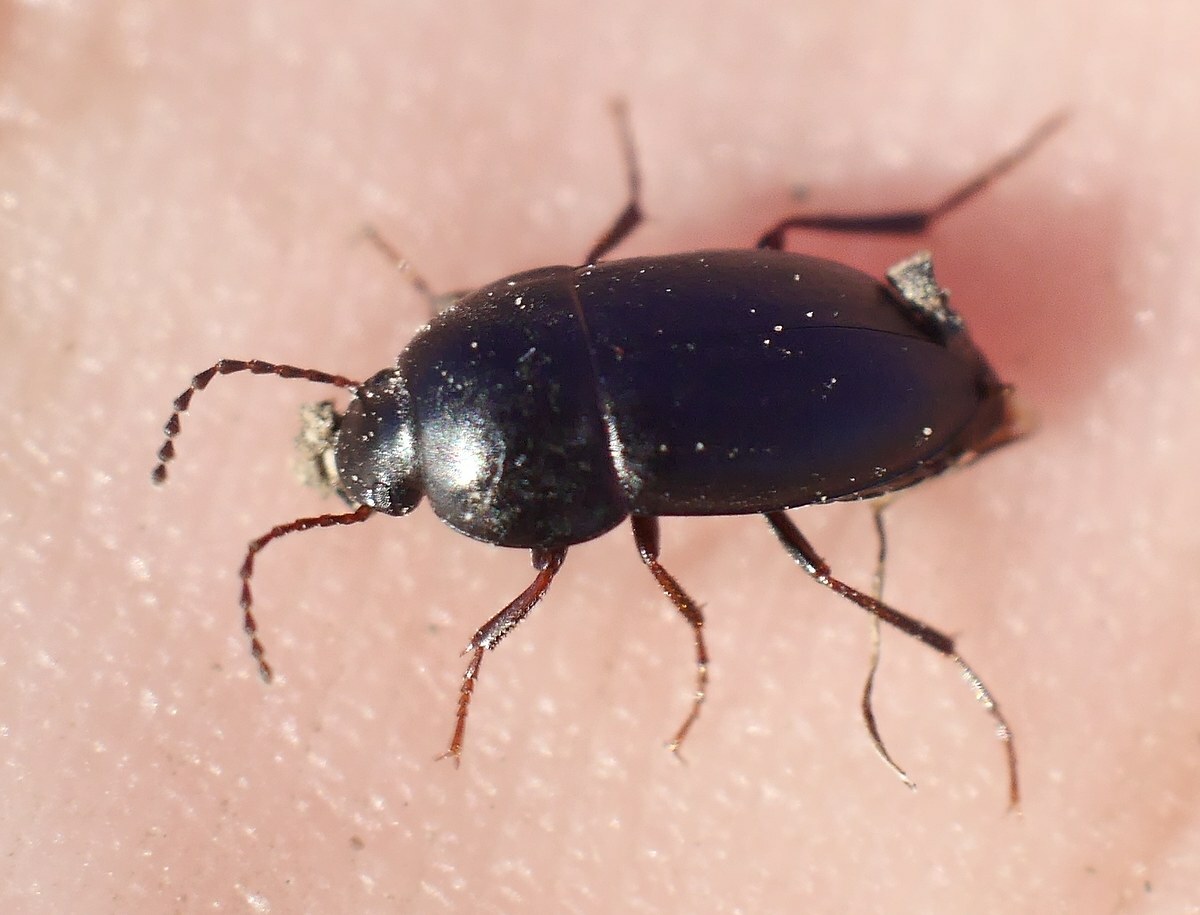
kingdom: Animalia
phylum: Arthropoda
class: Insecta
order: Coleoptera
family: Tenebrionidae
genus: Crypticus
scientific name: Crypticus quisquilius
